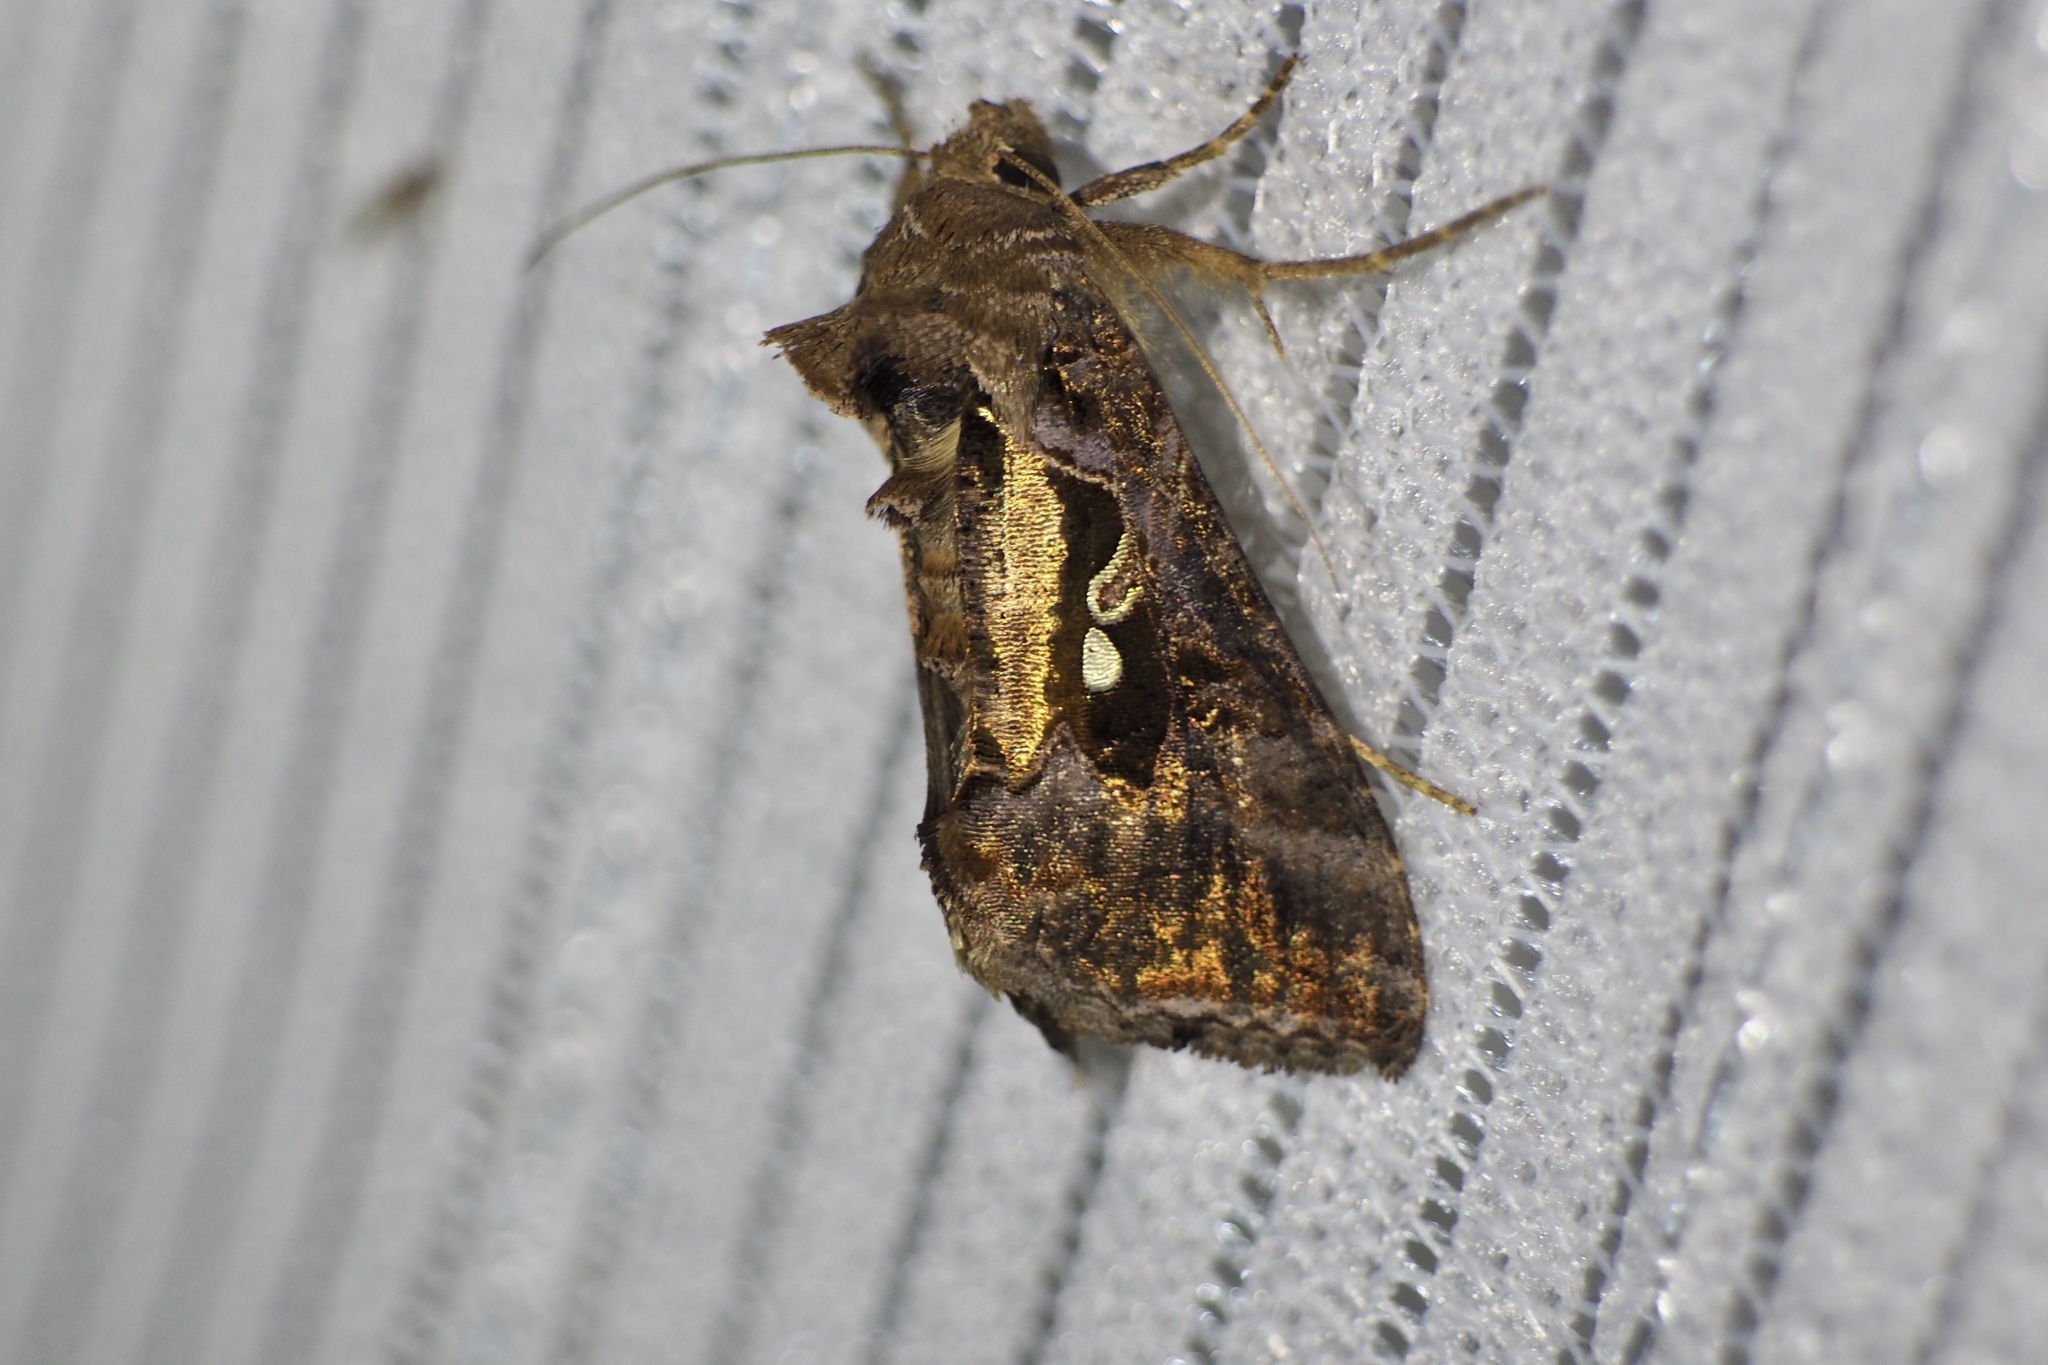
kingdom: Animalia
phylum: Arthropoda
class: Insecta
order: Lepidoptera
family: Noctuidae
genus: Ctenoplusia
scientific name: Ctenoplusia agnata
